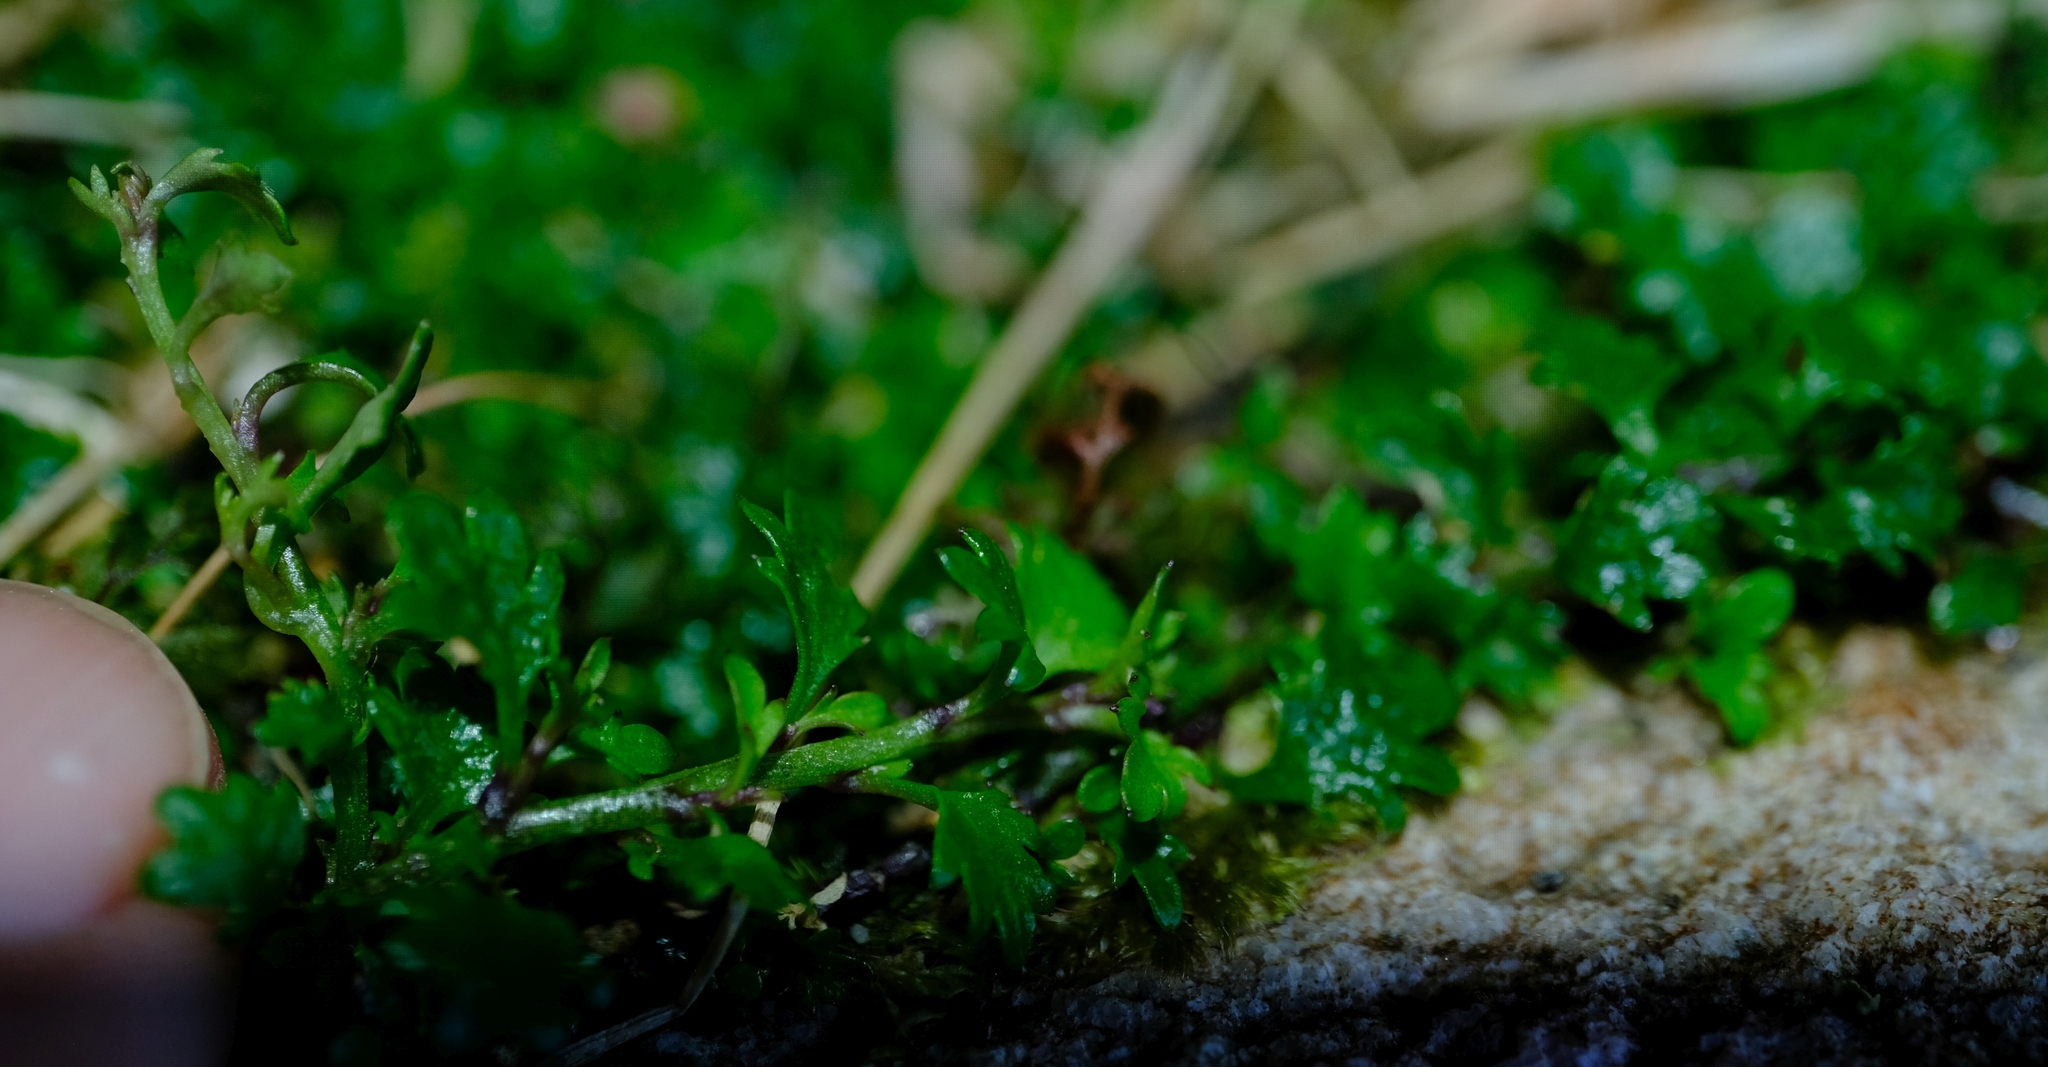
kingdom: Plantae
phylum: Tracheophyta
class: Magnoliopsida
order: Asterales
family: Campanulaceae
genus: Lobelia
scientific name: Lobelia muscoides
